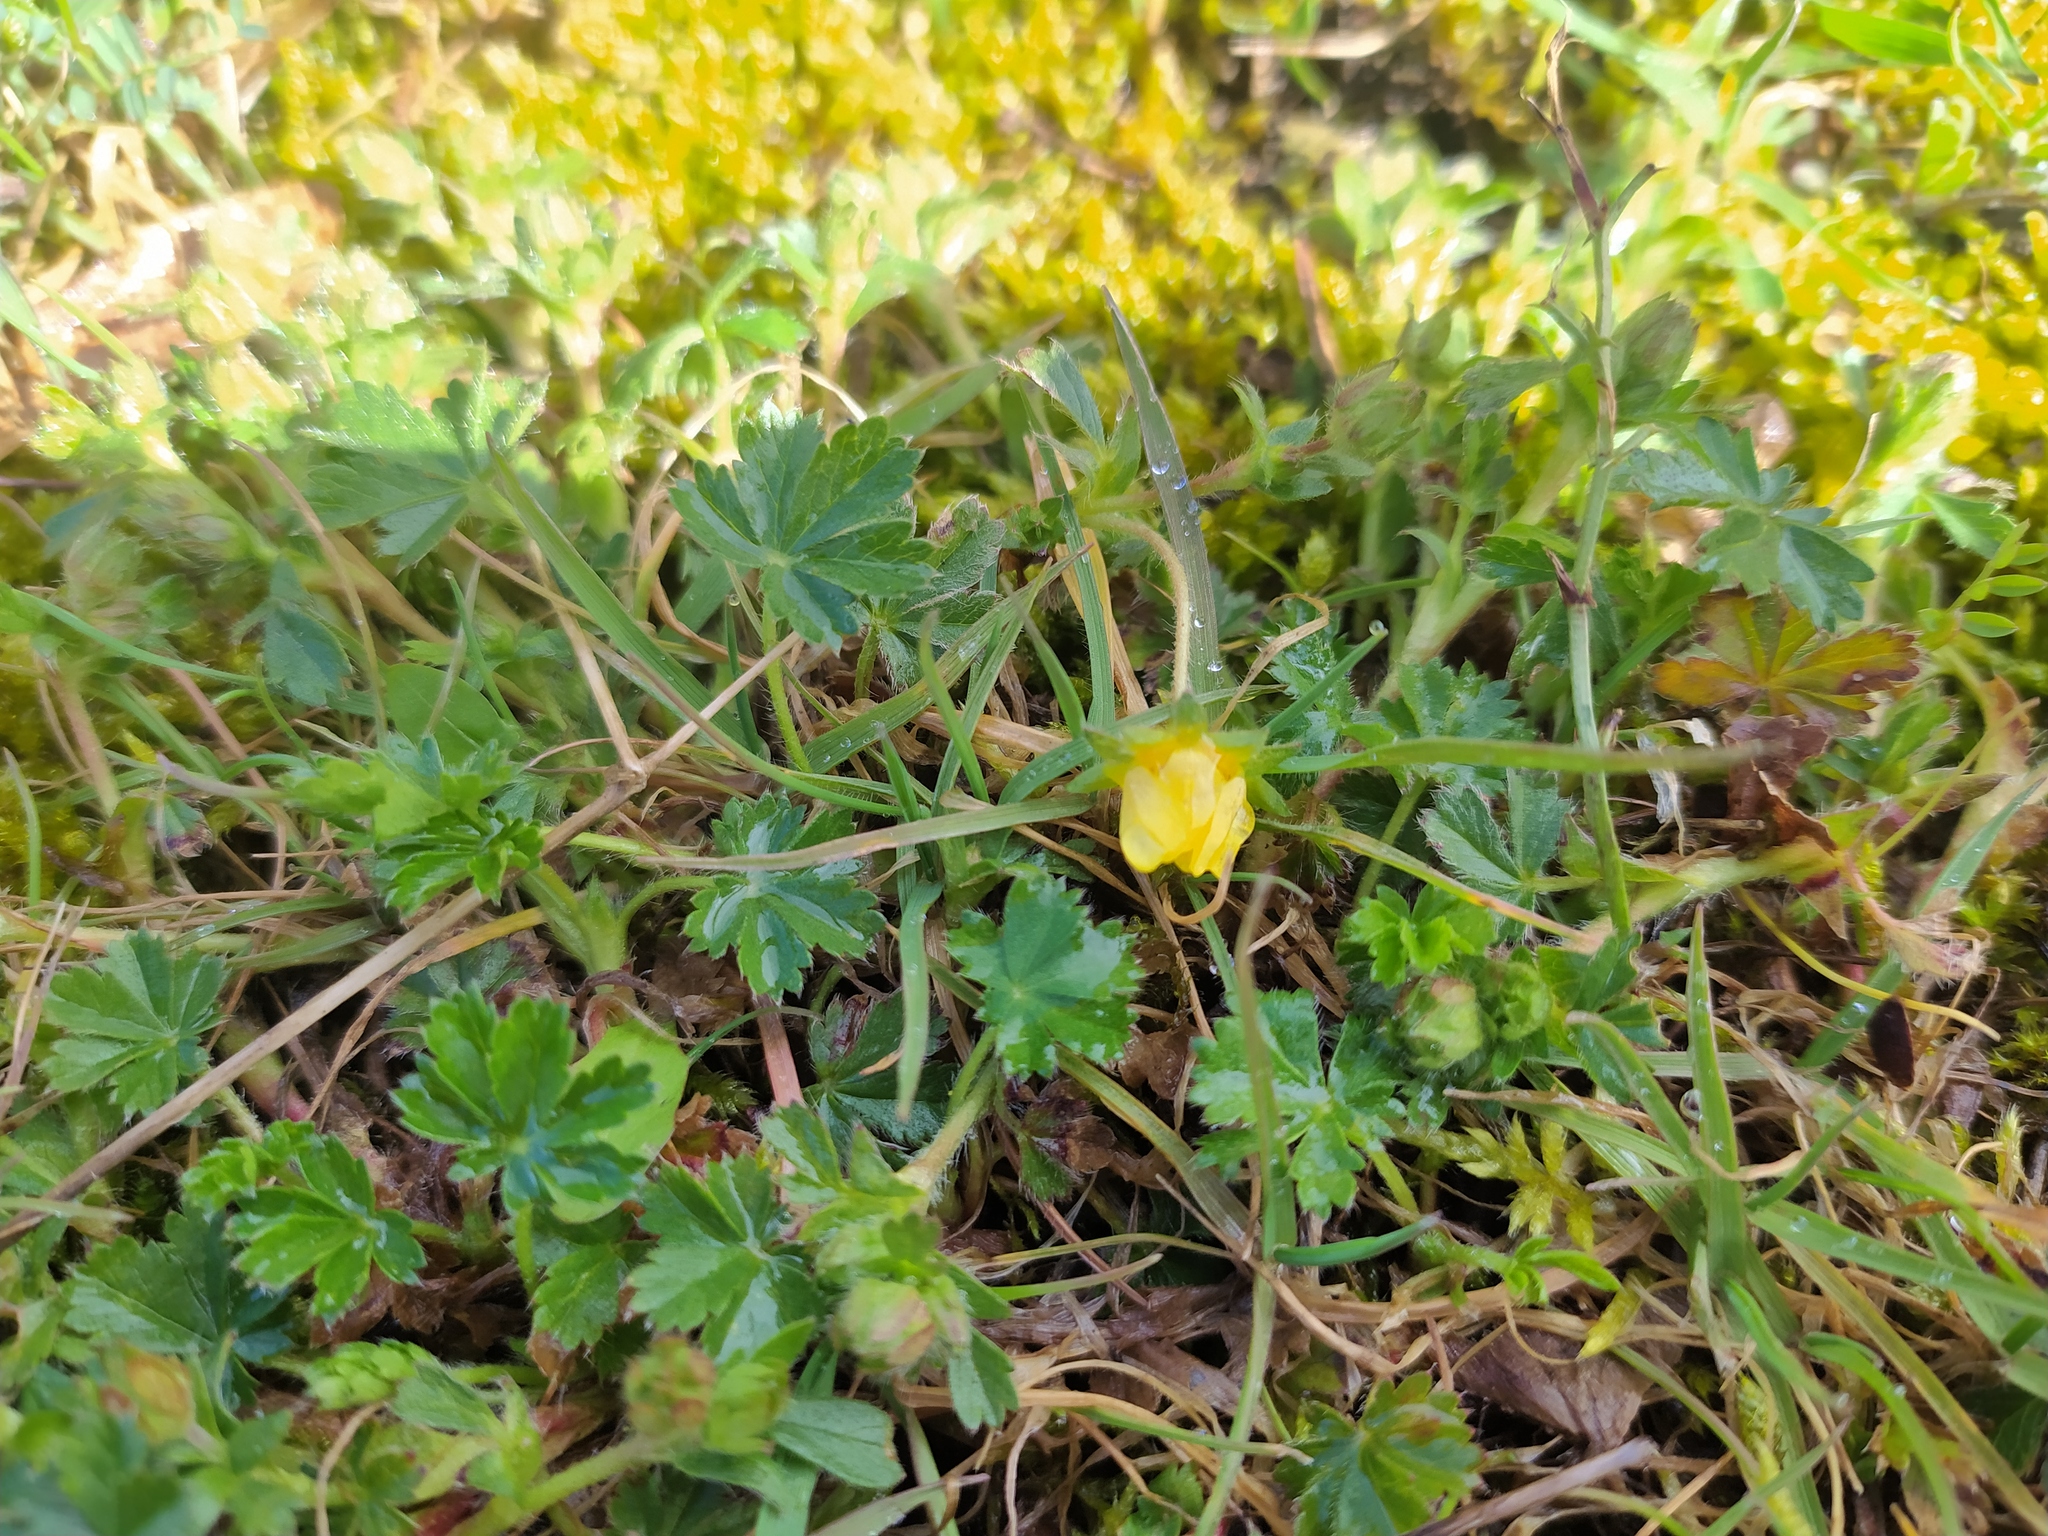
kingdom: Plantae
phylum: Tracheophyta
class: Magnoliopsida
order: Rosales
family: Rosaceae
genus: Potentilla
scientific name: Potentilla verna
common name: Spring cinquefoil
